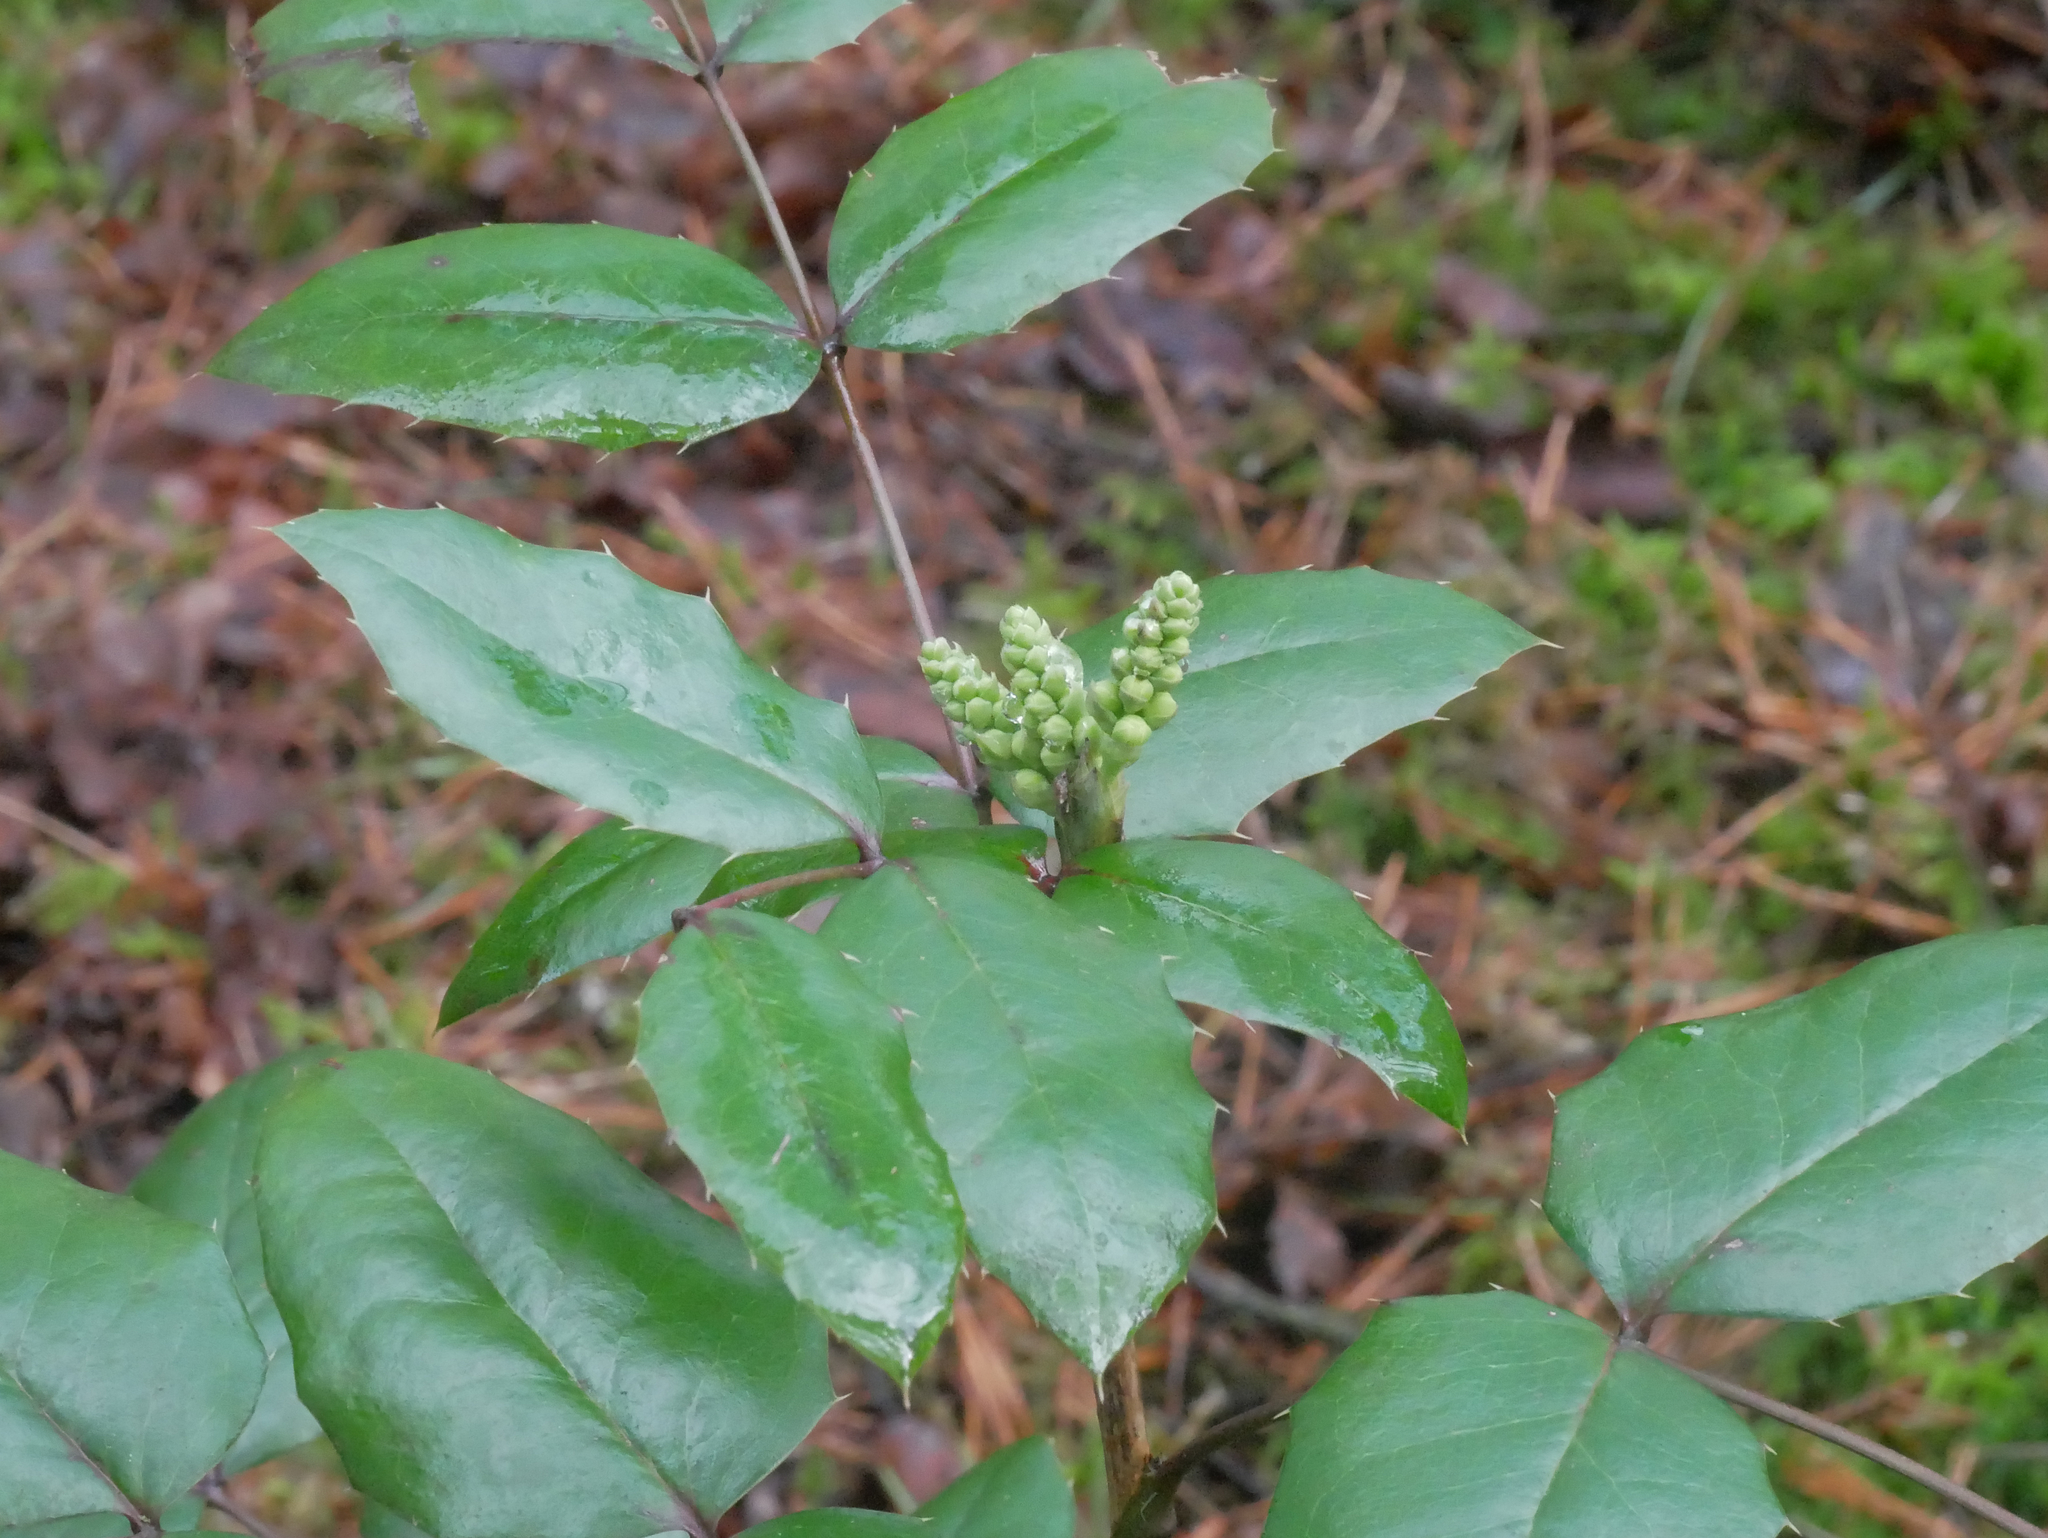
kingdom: Plantae
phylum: Tracheophyta
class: Magnoliopsida
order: Ranunculales
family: Berberidaceae
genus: Mahonia
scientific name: Mahonia aquifolium
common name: Oregon-grape
